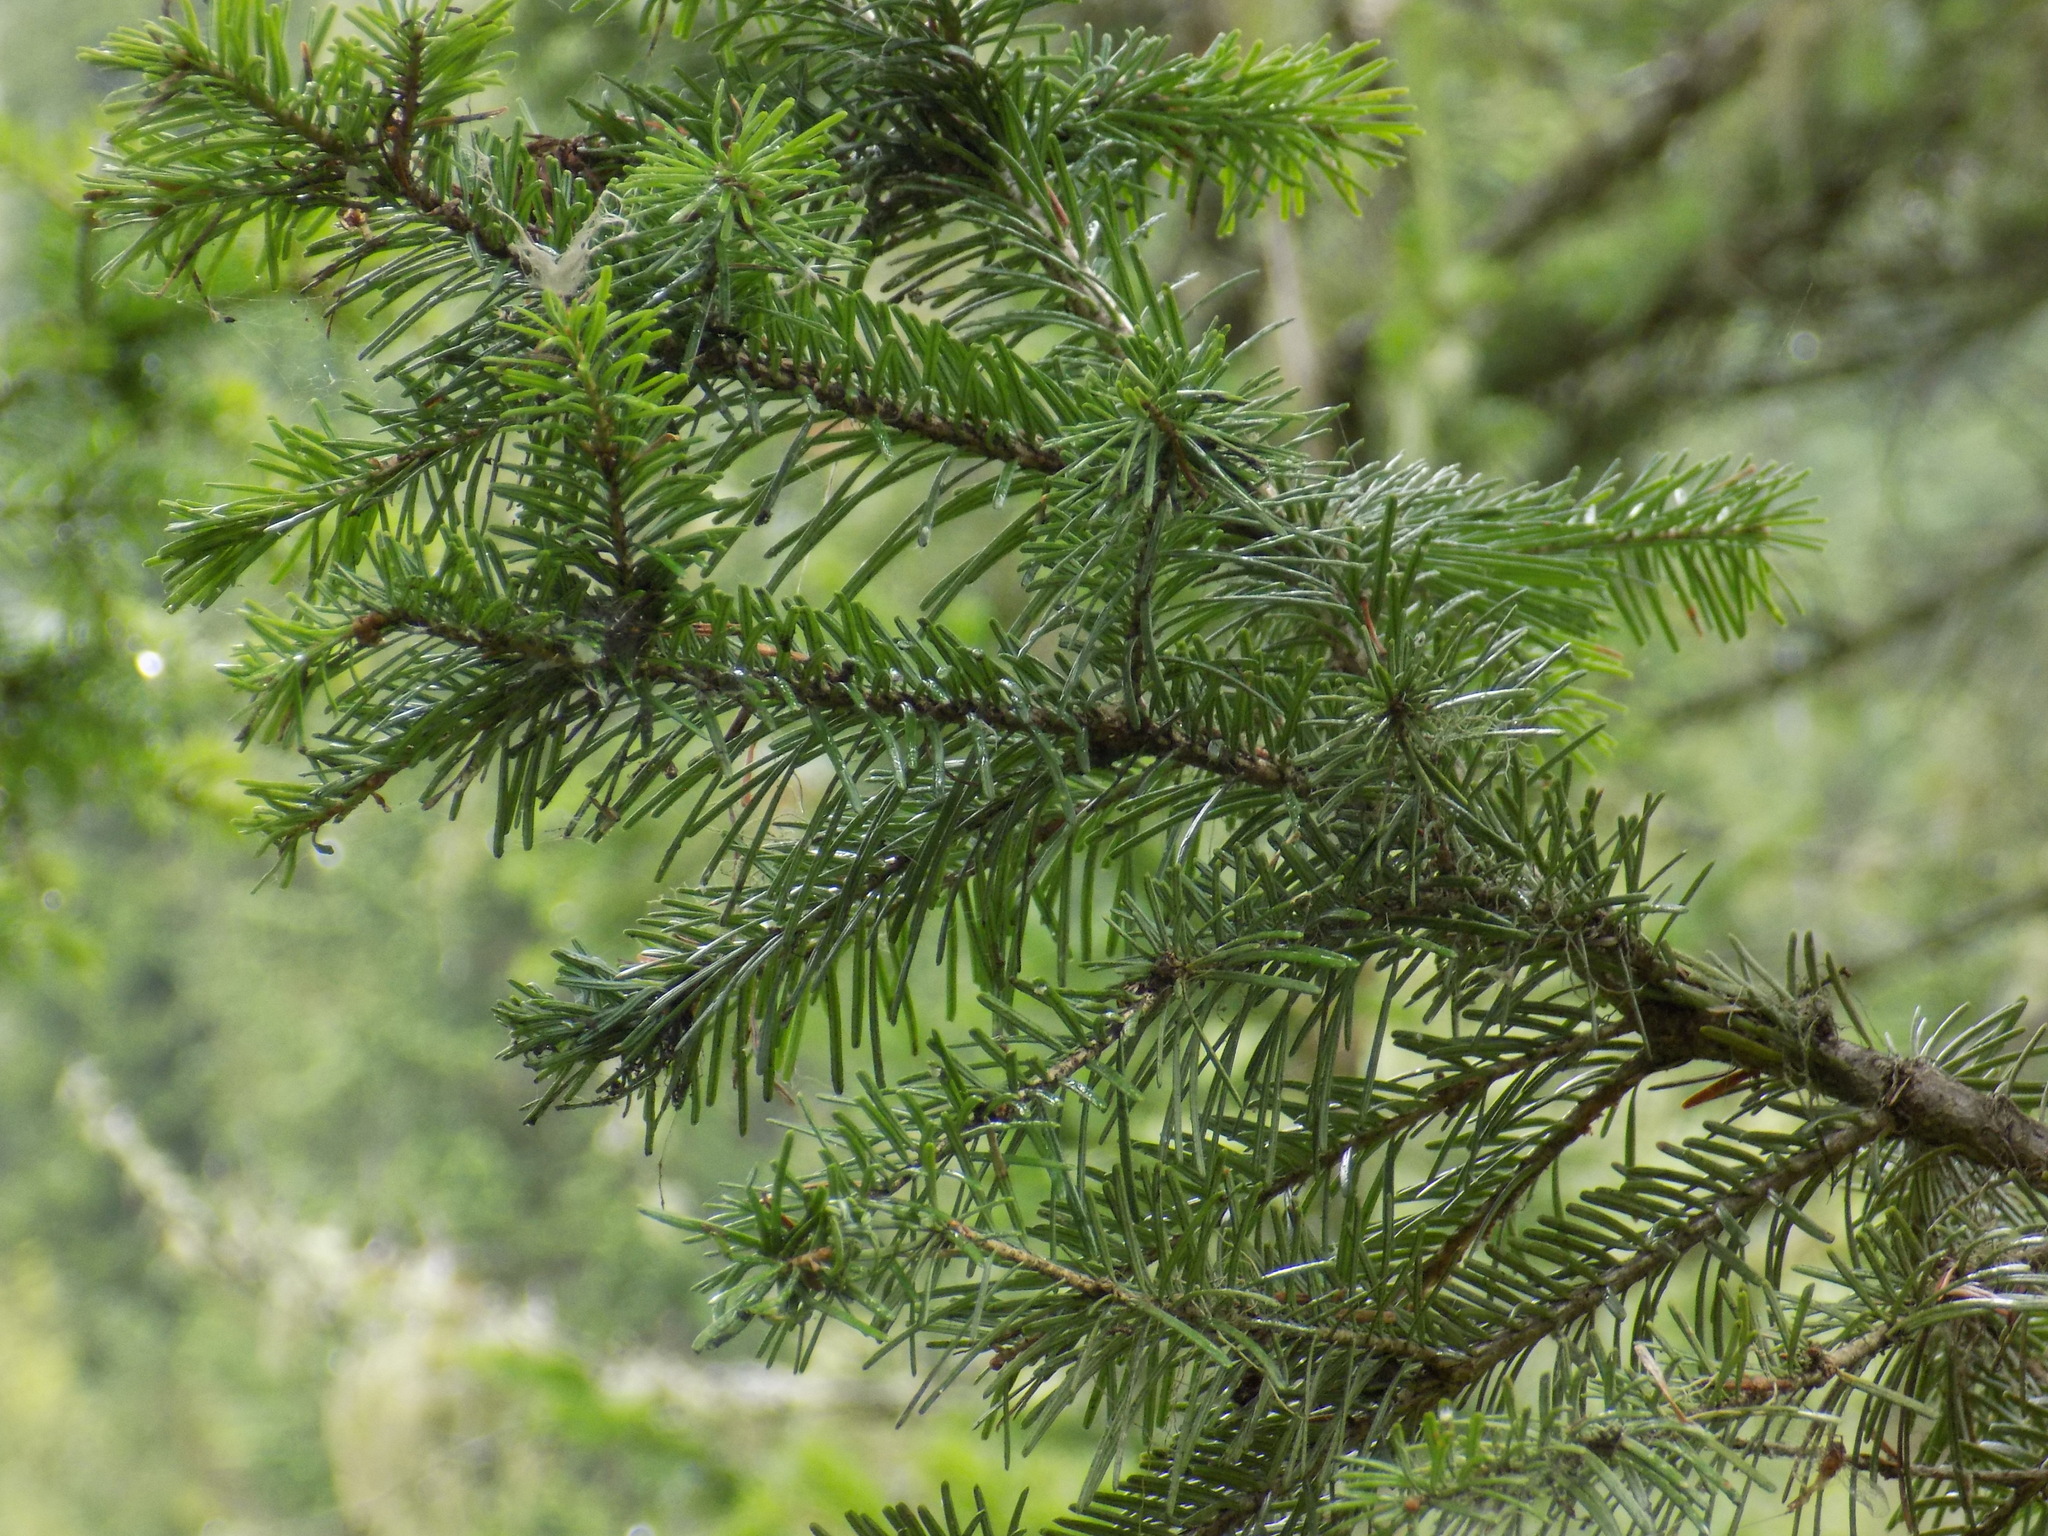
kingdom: Plantae
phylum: Tracheophyta
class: Pinopsida
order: Pinales
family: Pinaceae
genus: Abies
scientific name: Abies sibirica
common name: Siberian fir
